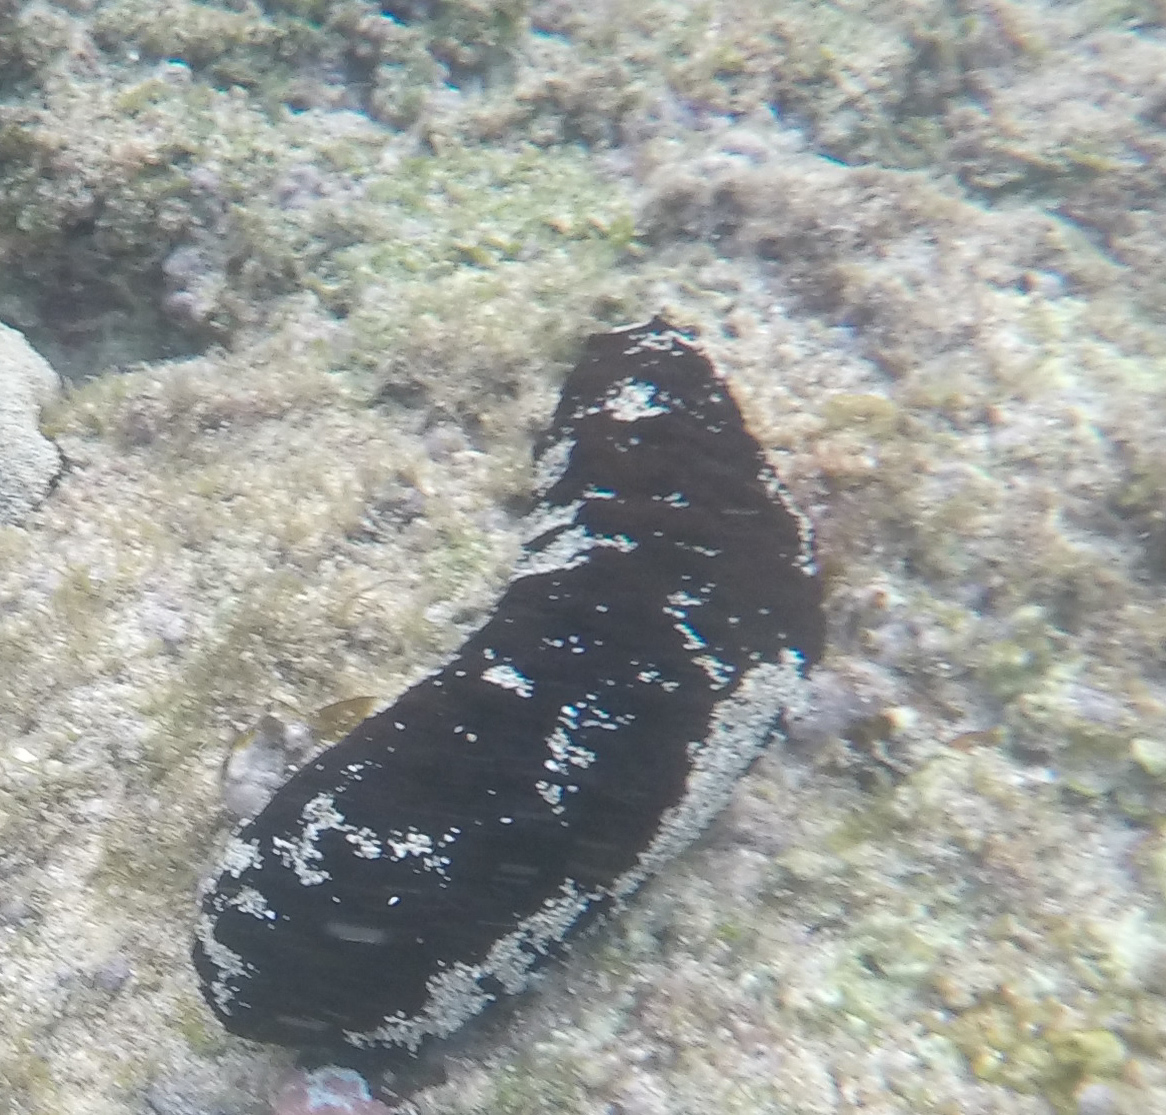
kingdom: Animalia
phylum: Echinodermata
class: Holothuroidea
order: Holothuriida
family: Holothuriidae
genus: Holothuria
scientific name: Holothuria atra
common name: Lollyfish
